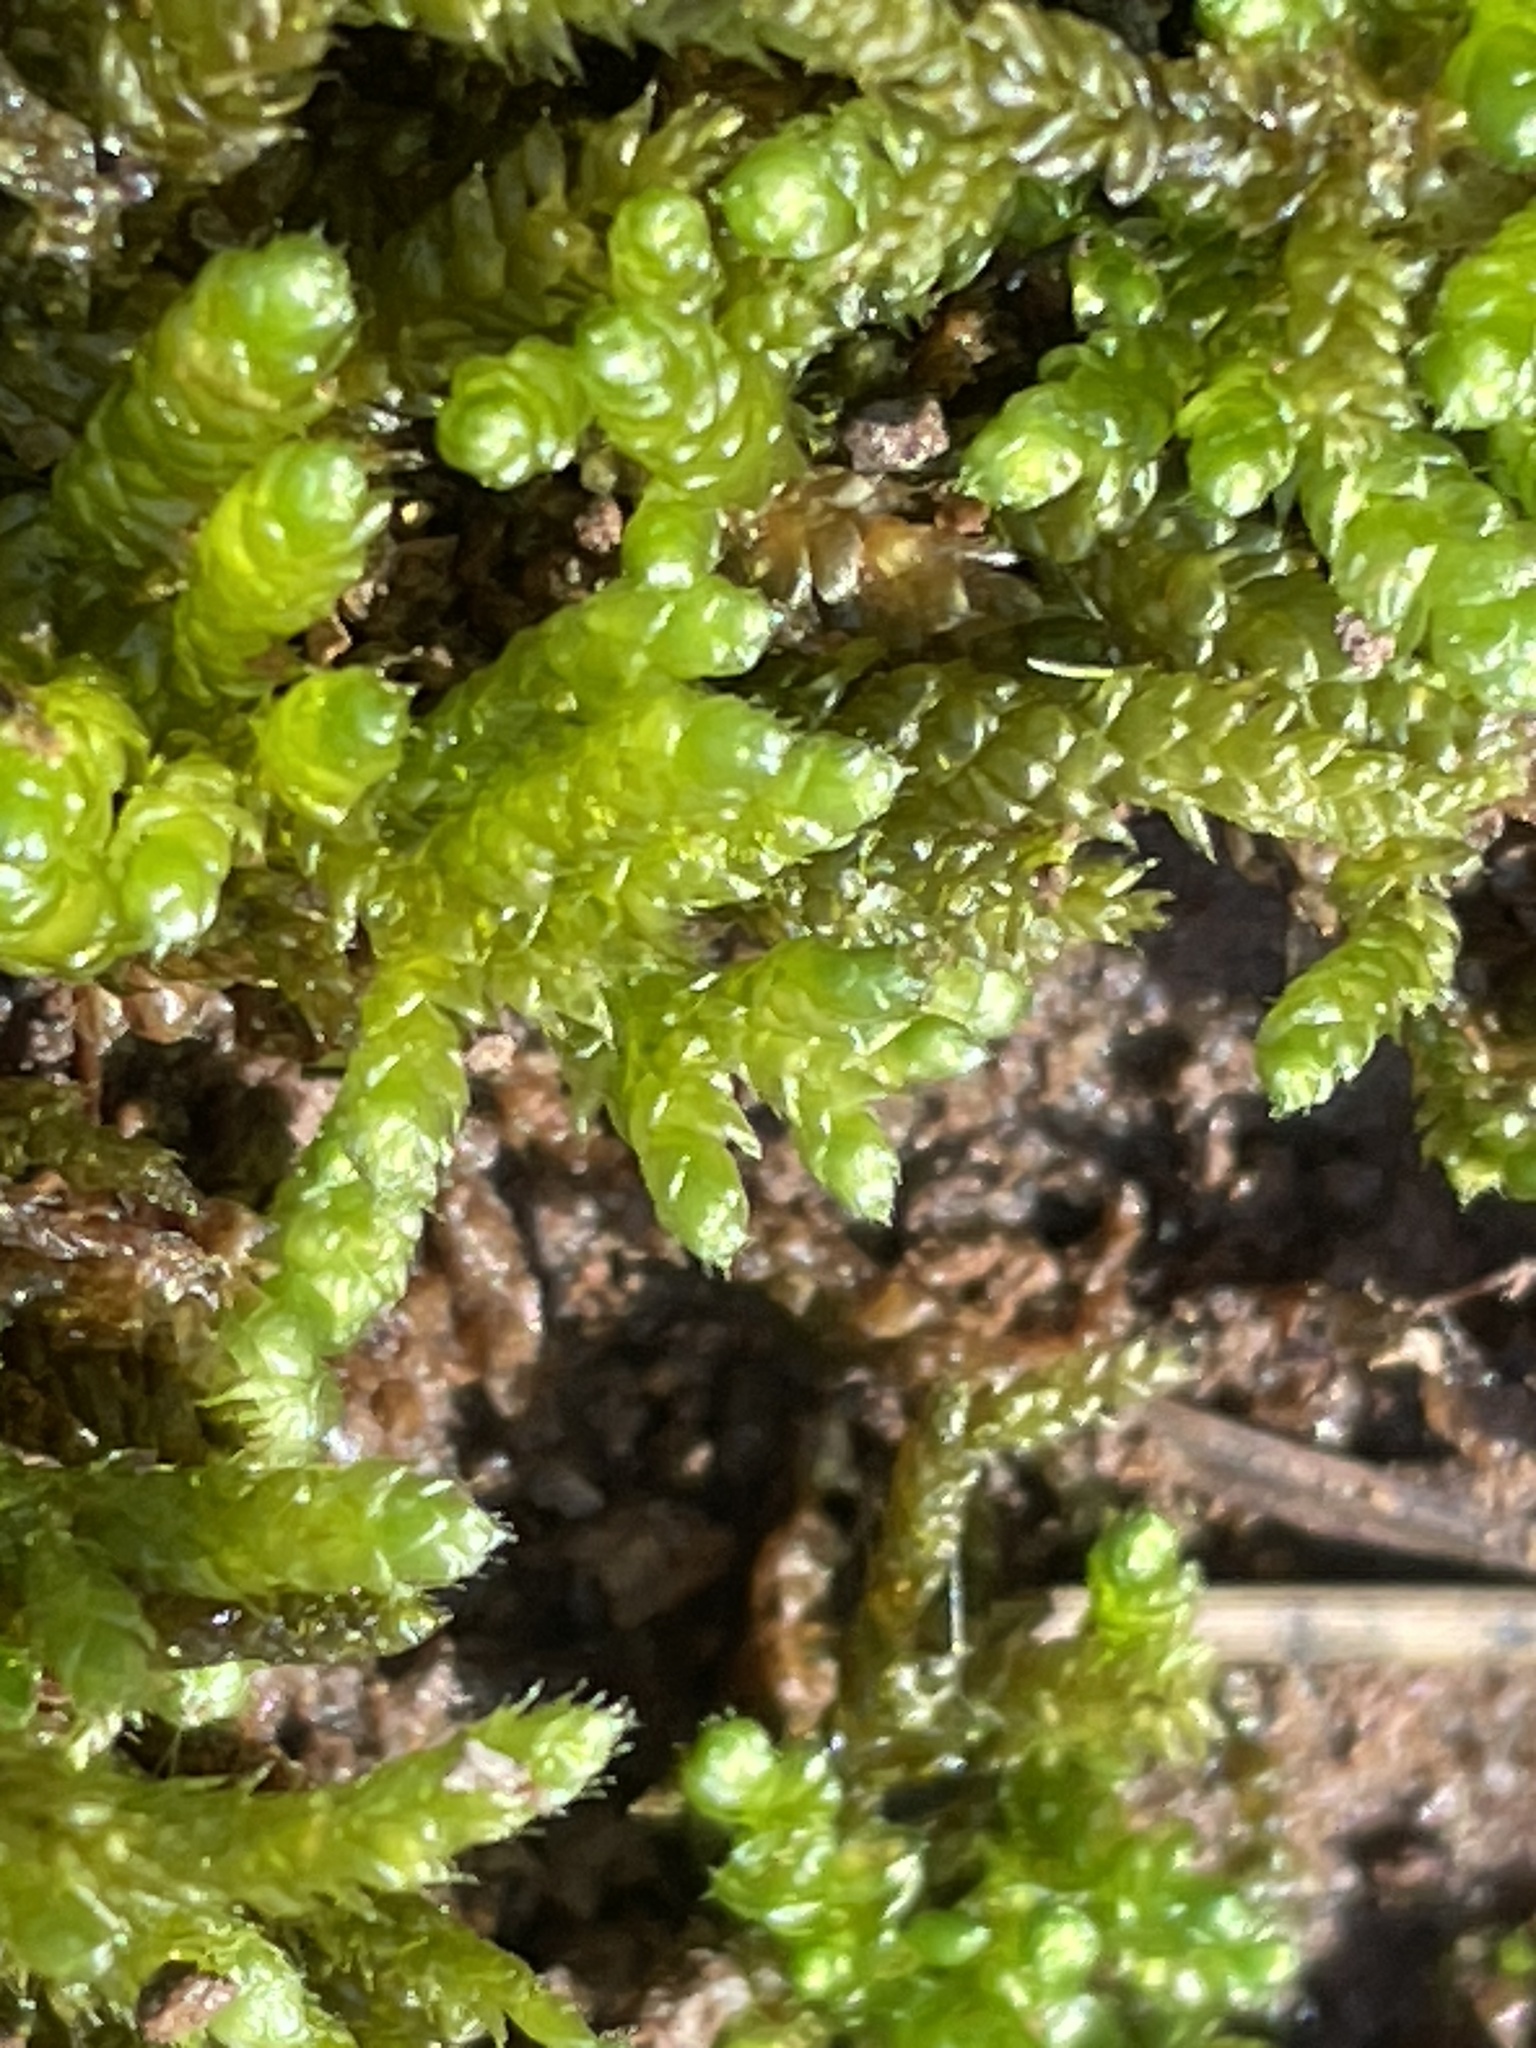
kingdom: Plantae
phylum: Bryophyta
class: Bryopsida
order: Hypnales
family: Brachytheciaceae
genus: Bryoandersonia
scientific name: Bryoandersonia illecebra
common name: Spoon-leaved moss
